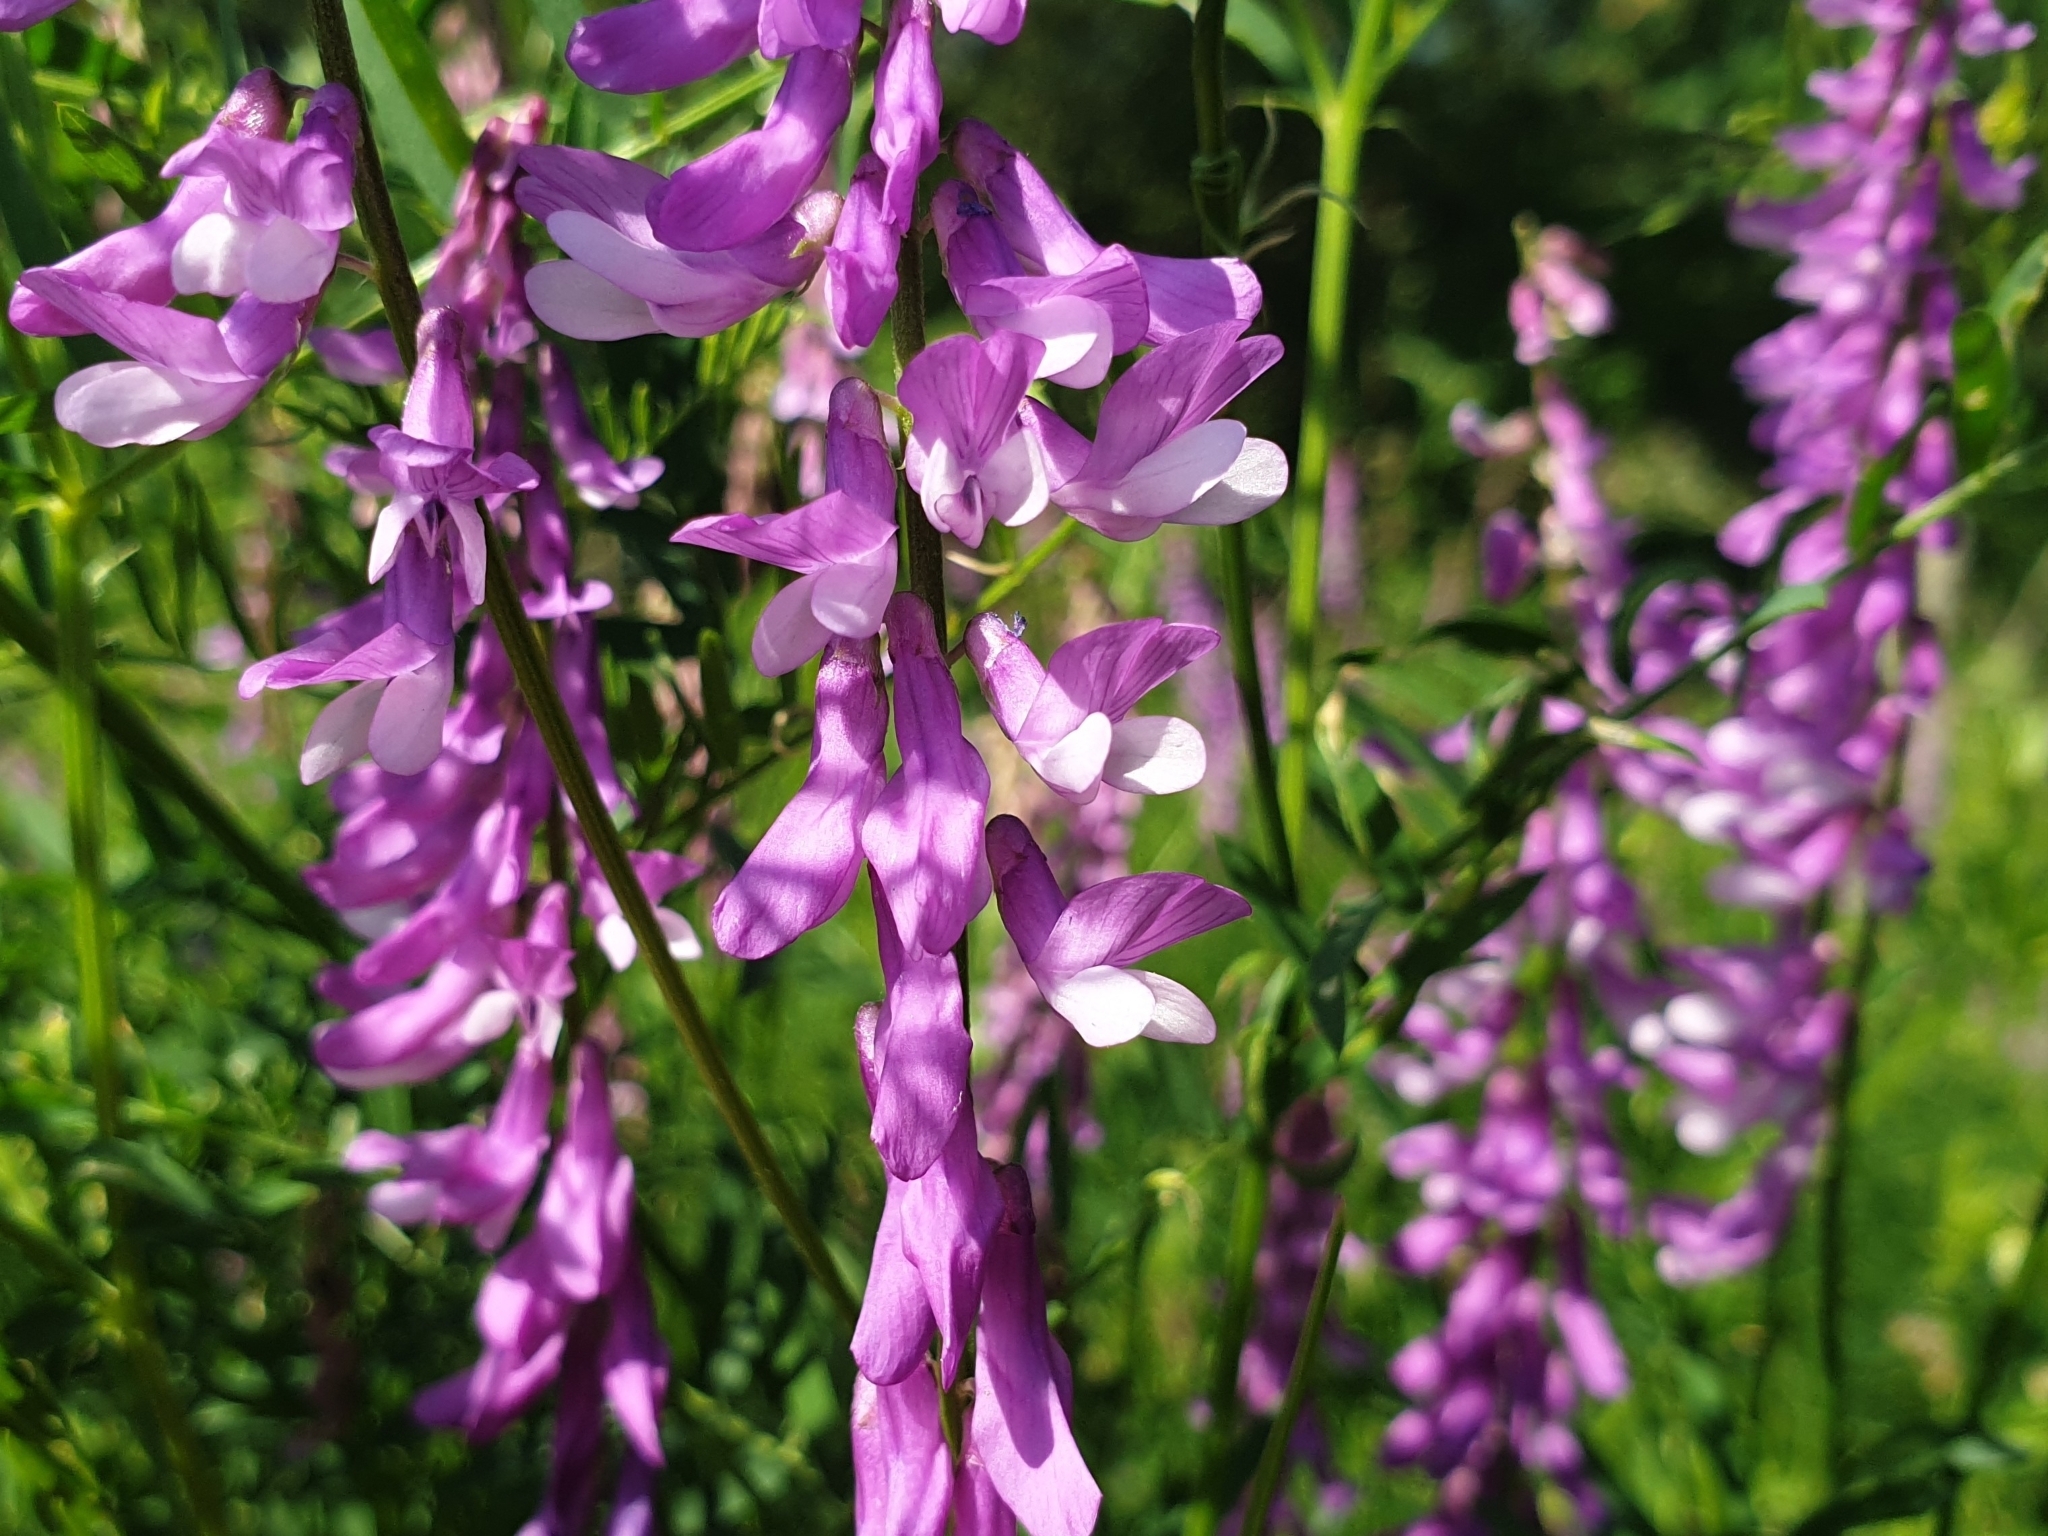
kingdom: Plantae
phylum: Tracheophyta
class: Magnoliopsida
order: Fabales
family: Fabaceae
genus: Vicia
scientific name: Vicia tenuifolia
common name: Fine-leaved vetch
